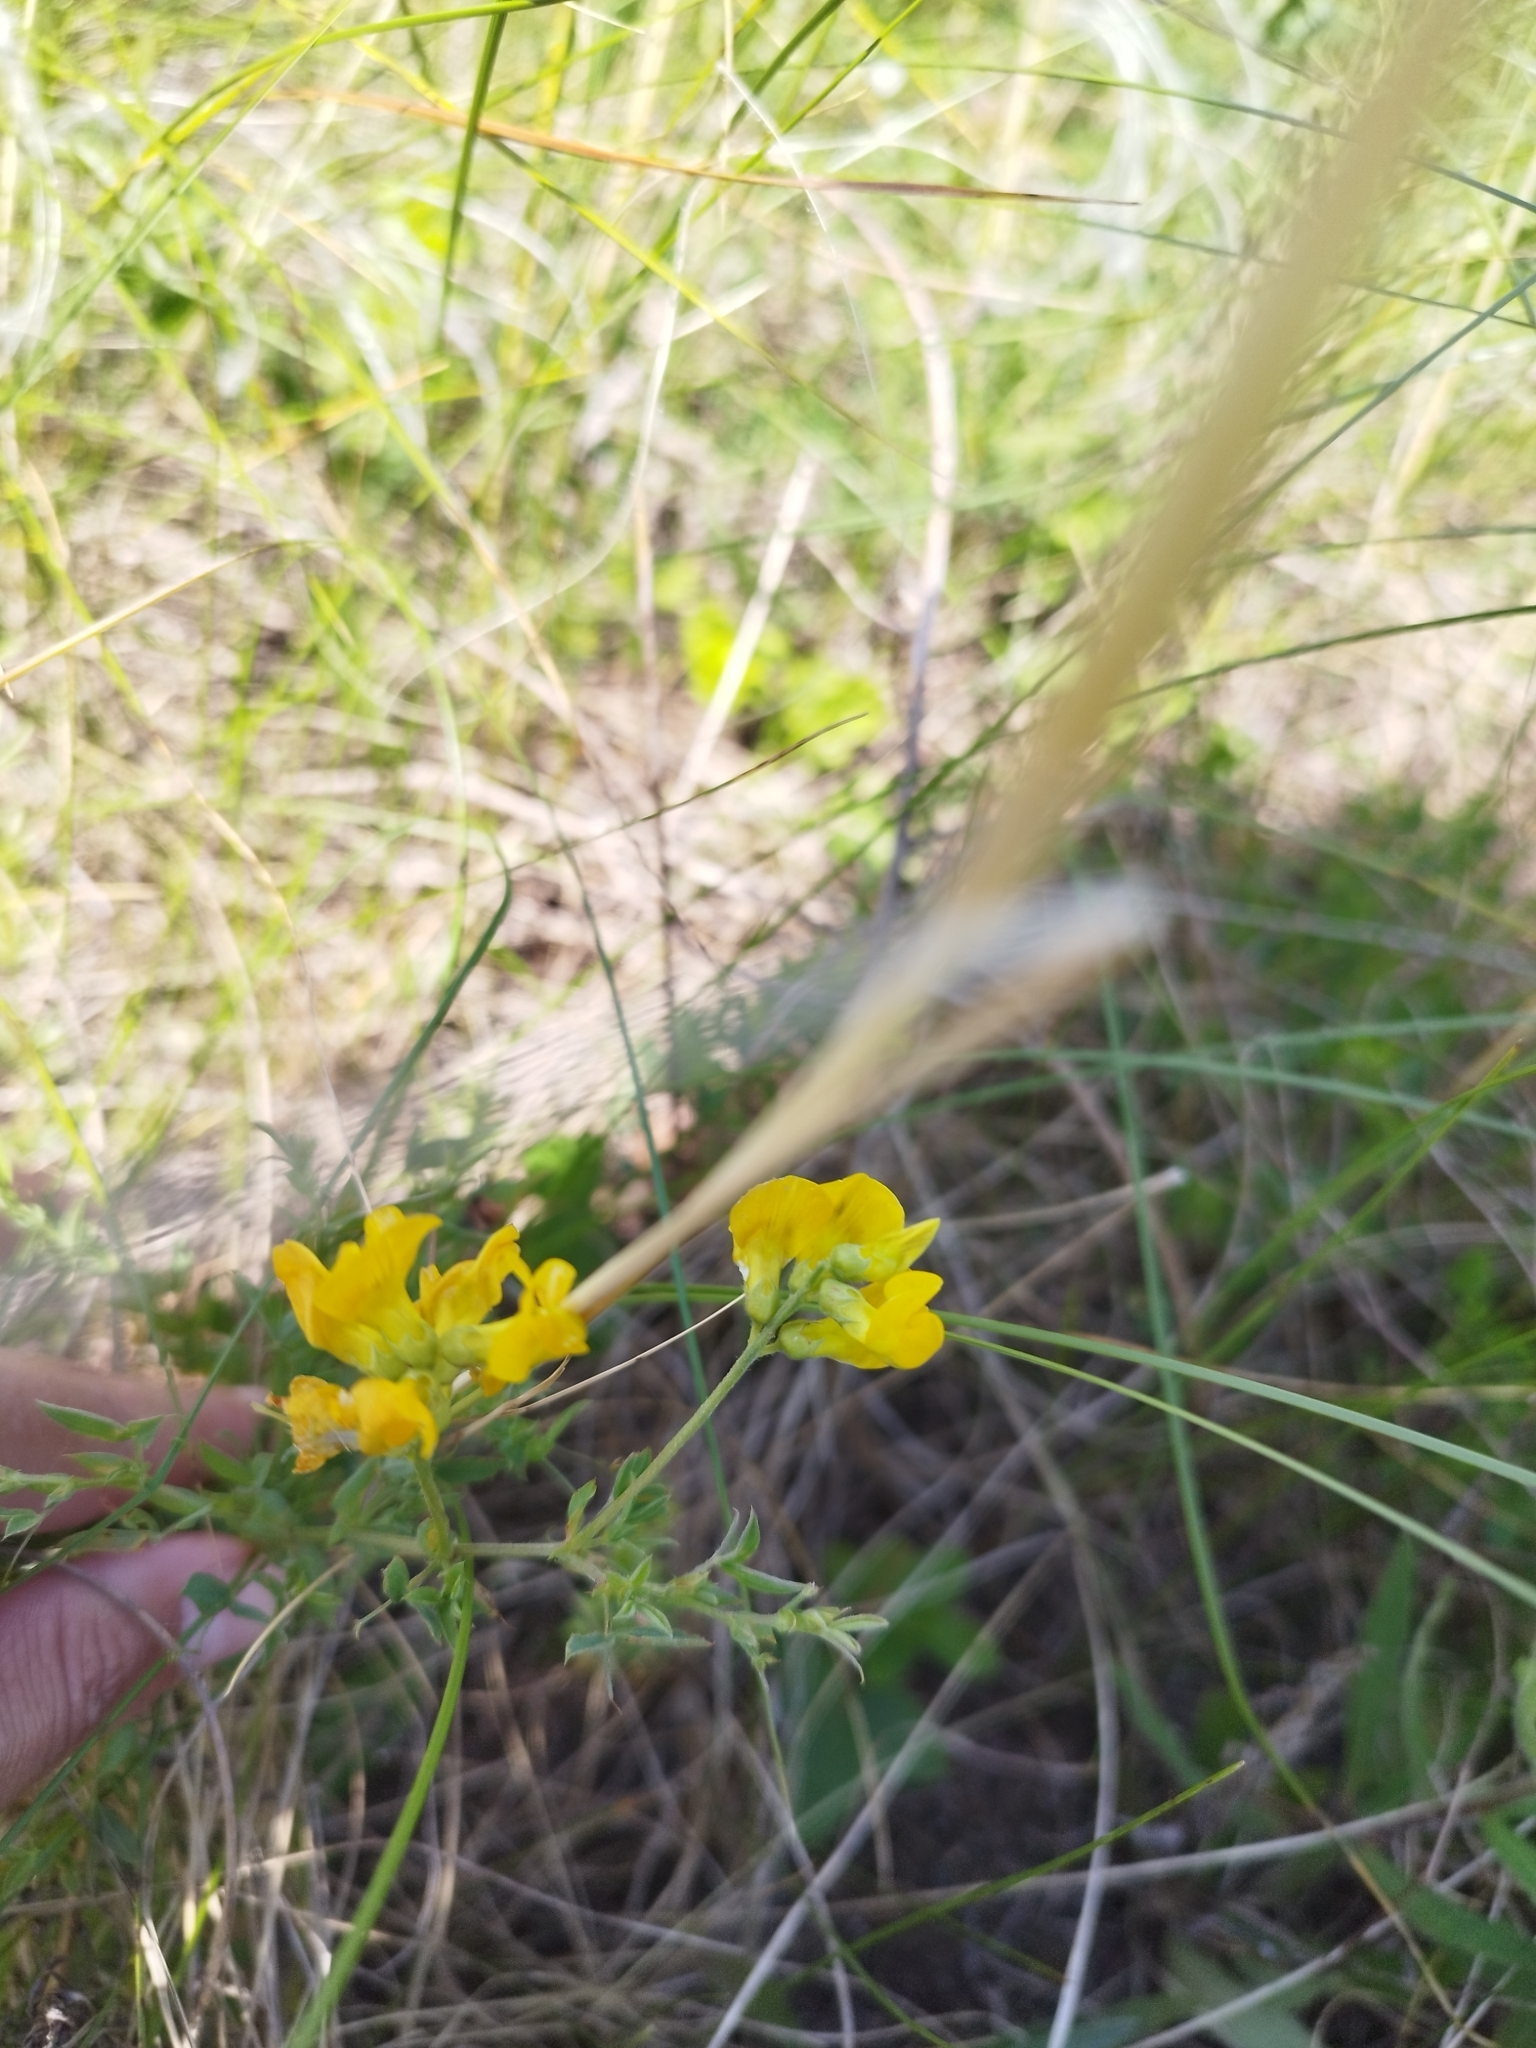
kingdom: Plantae
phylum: Tracheophyta
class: Magnoliopsida
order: Fabales
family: Fabaceae
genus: Lathyrus
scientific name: Lathyrus pratensis
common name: Meadow vetchling
